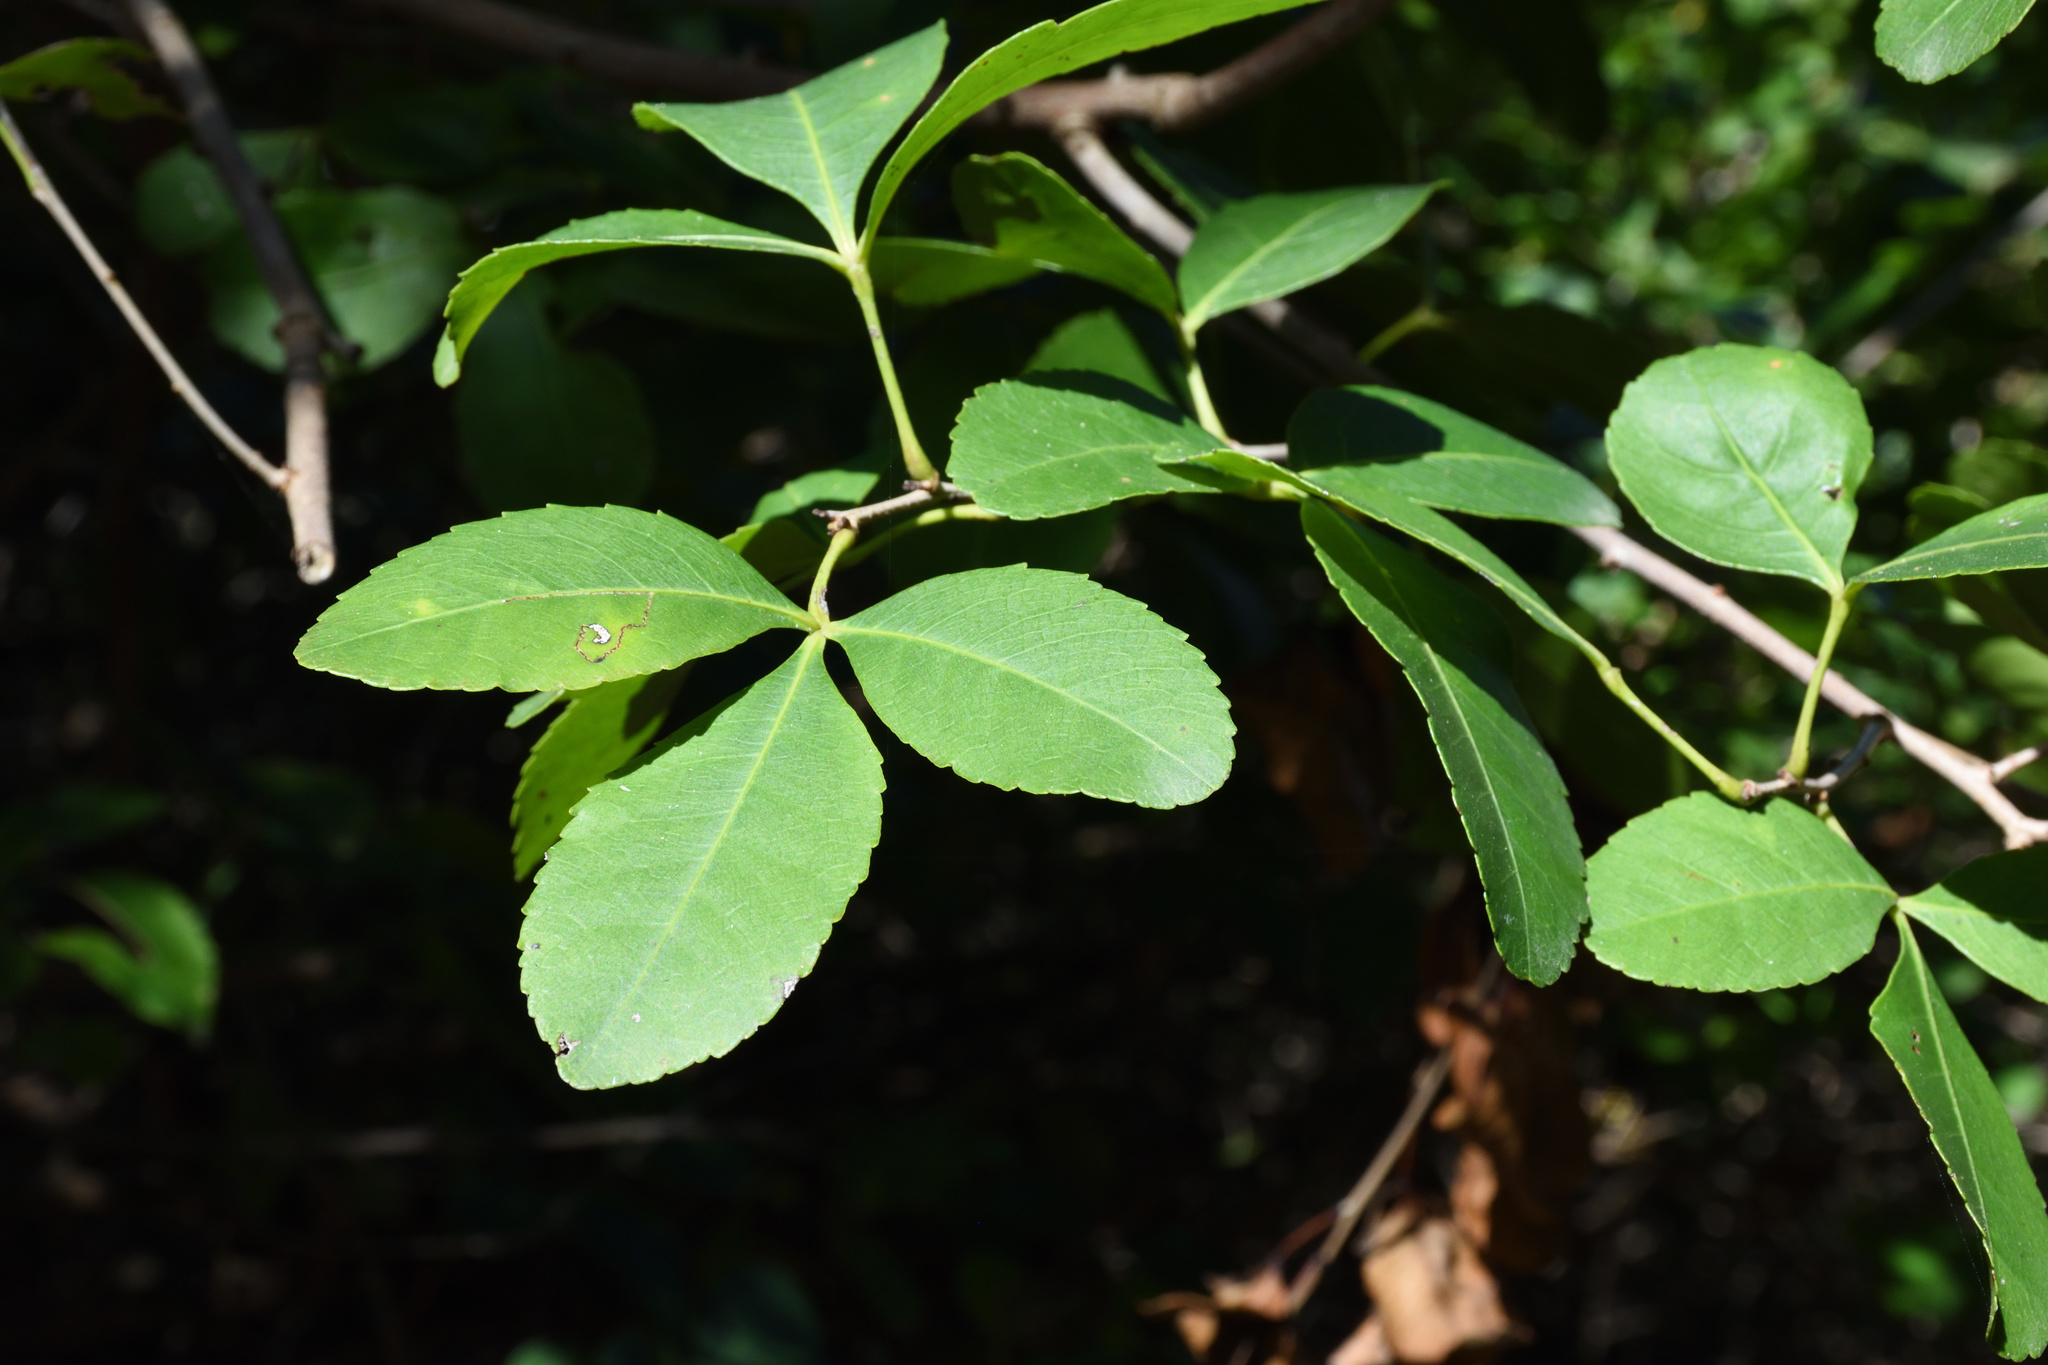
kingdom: Plantae
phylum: Tracheophyta
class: Magnoliopsida
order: Sapindales
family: Anacardiaceae
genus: Searsia
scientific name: Searsia natalensis
